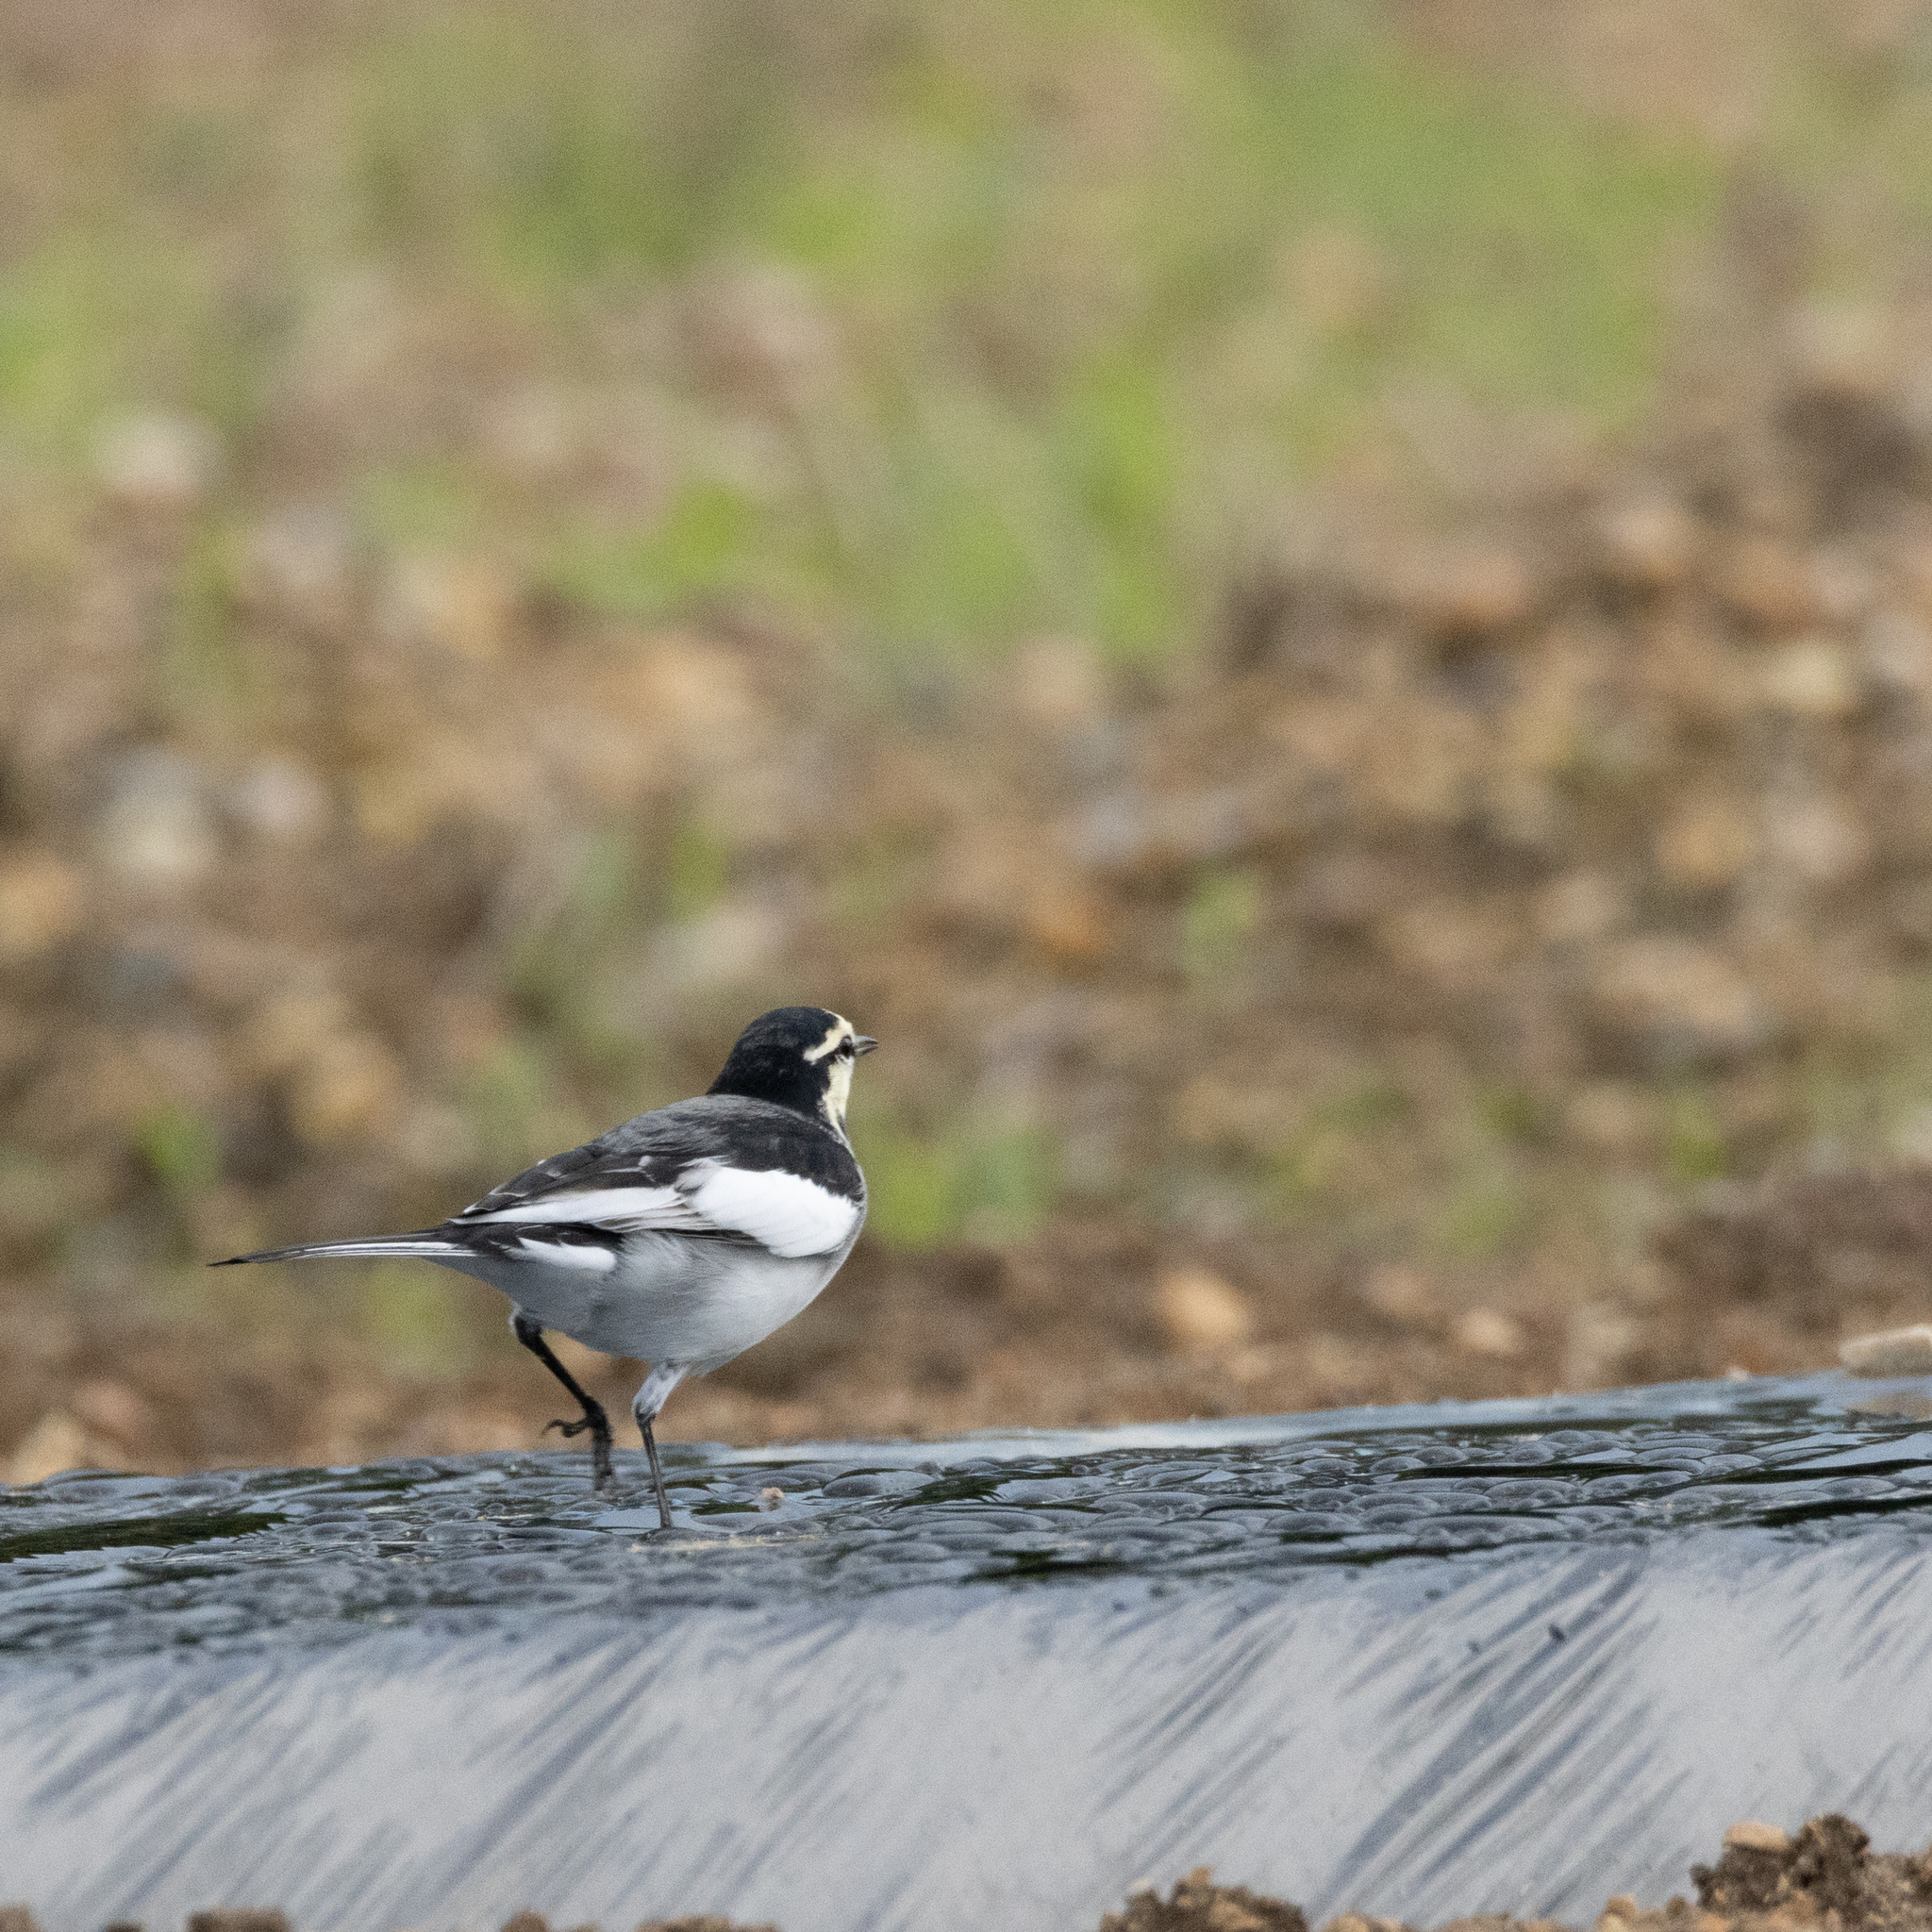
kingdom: Animalia
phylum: Chordata
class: Aves
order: Passeriformes
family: Motacillidae
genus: Motacilla
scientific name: Motacilla alba
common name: White wagtail
